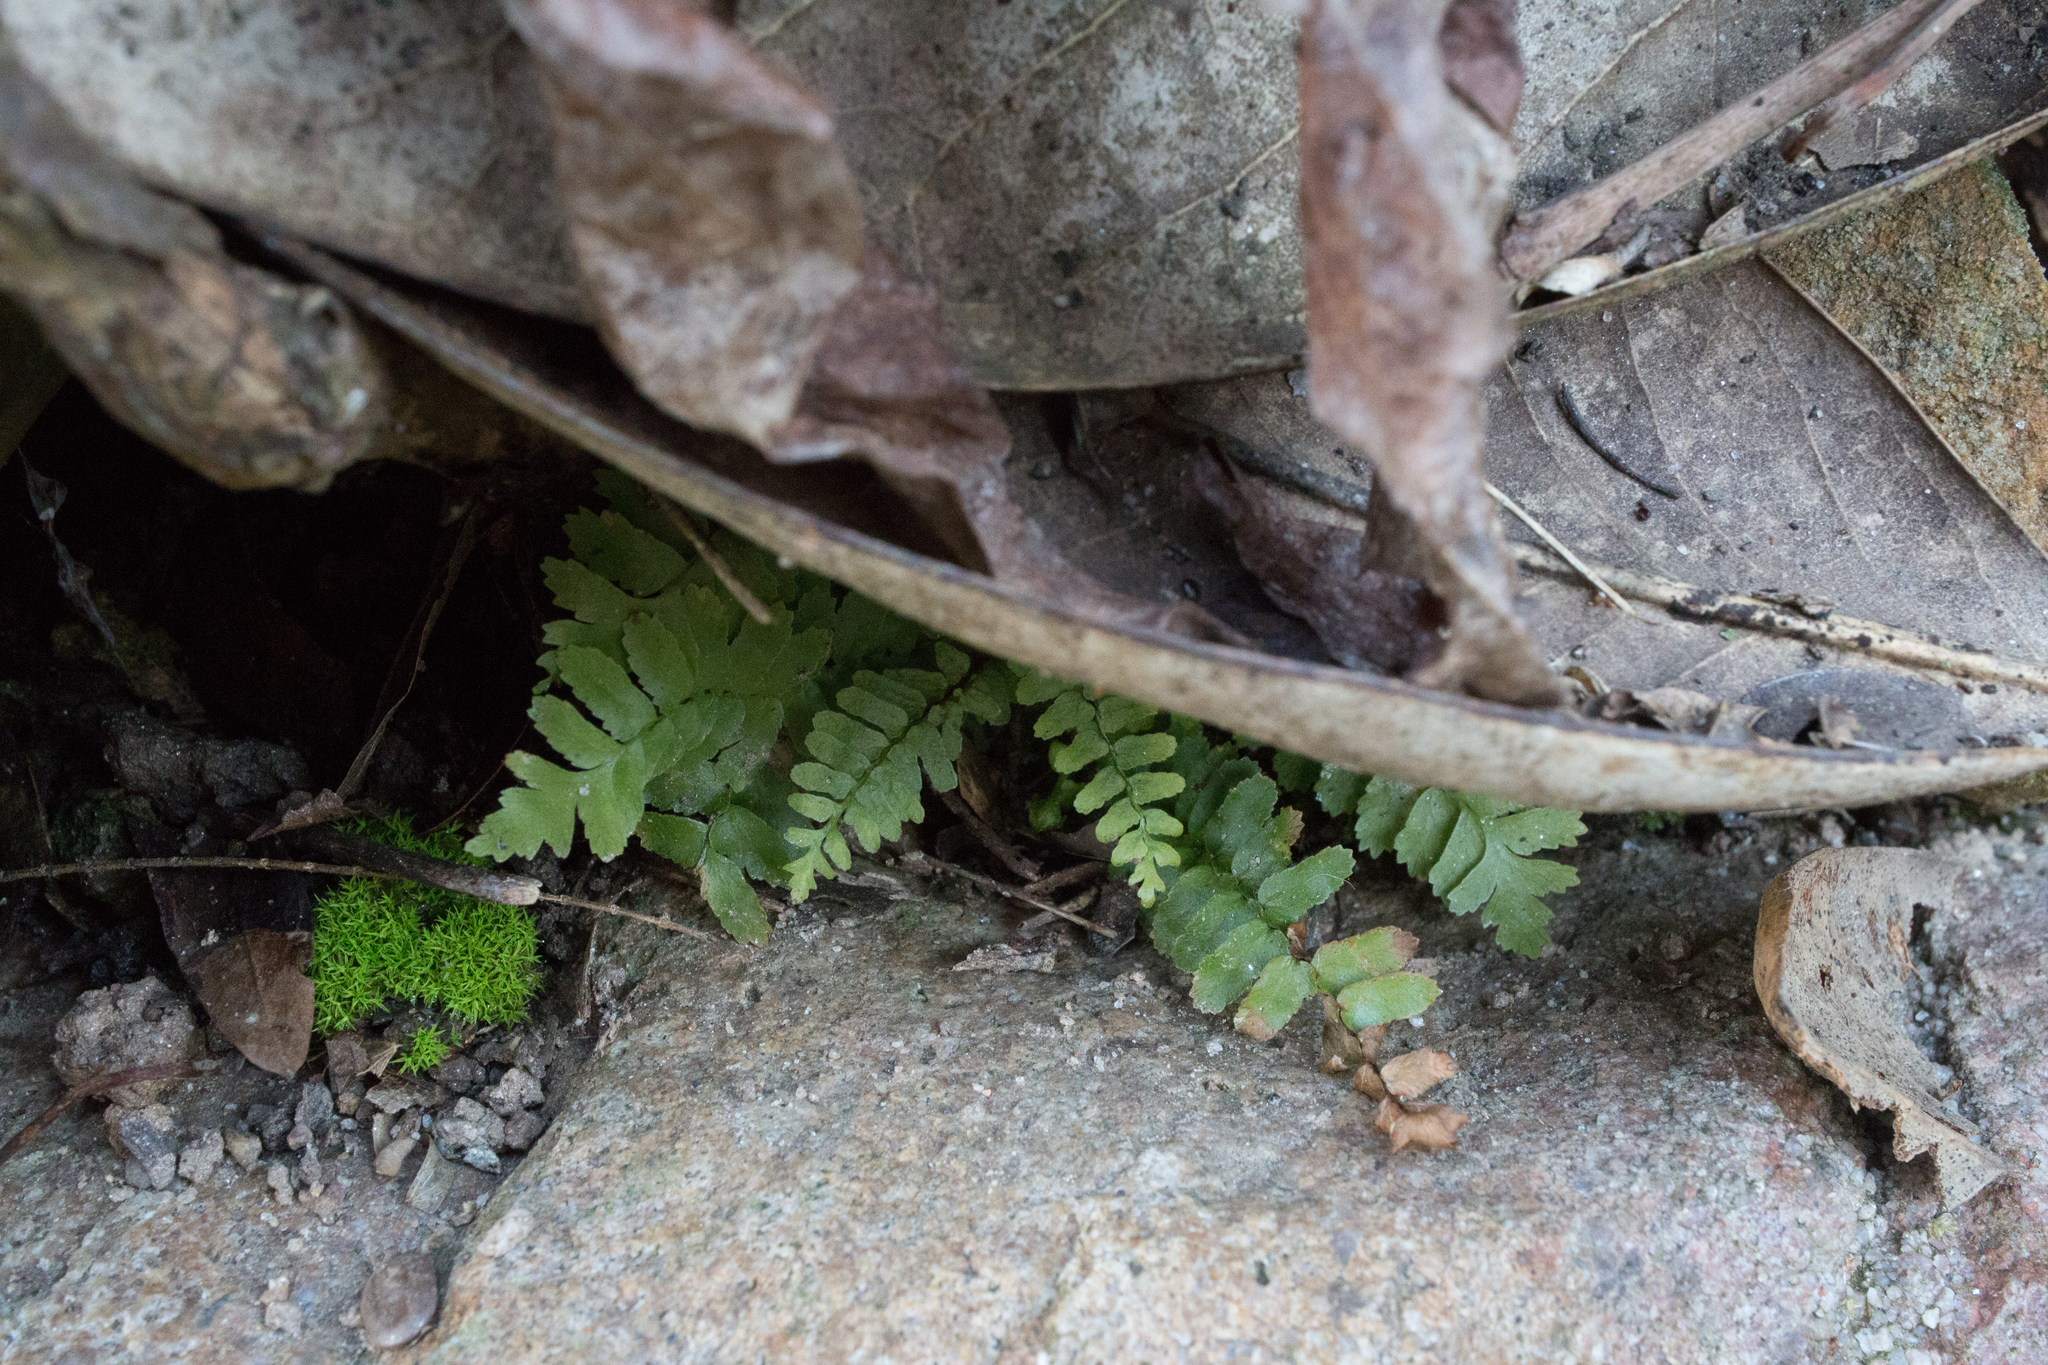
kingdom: Plantae
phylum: Tracheophyta
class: Polypodiopsida
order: Polypodiales
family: Aspleniaceae
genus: Asplenium
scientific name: Asplenium platyneuron
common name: Ebony spleenwort
